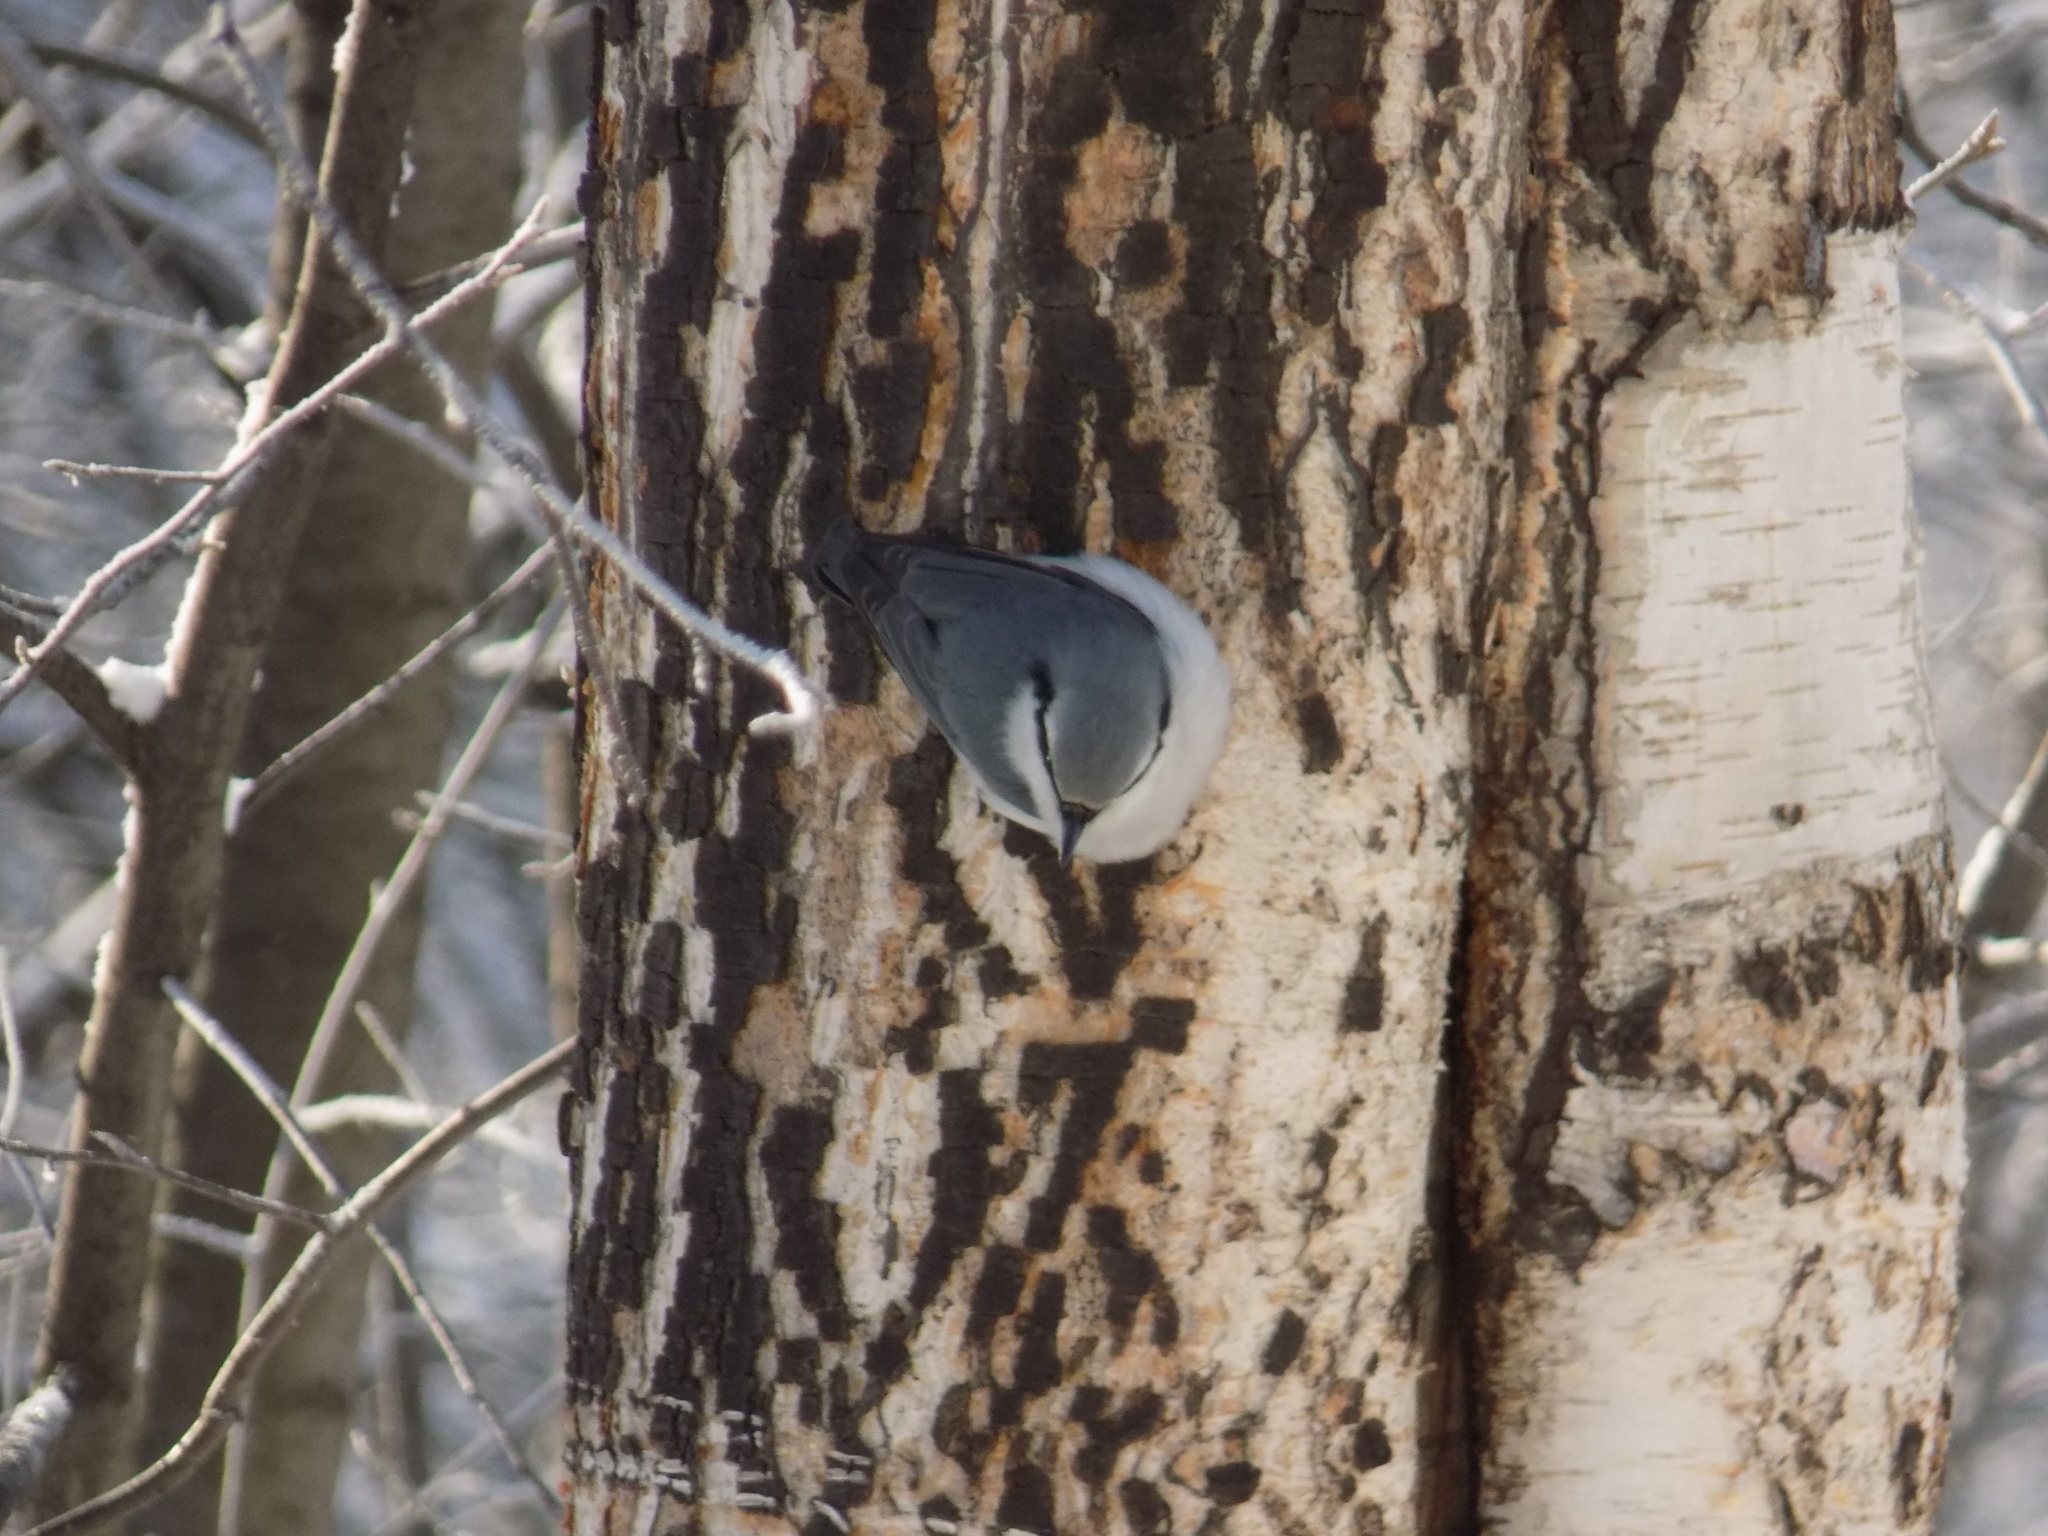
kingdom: Animalia
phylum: Chordata
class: Aves
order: Passeriformes
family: Sittidae
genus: Sitta
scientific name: Sitta europaea
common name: Eurasian nuthatch
